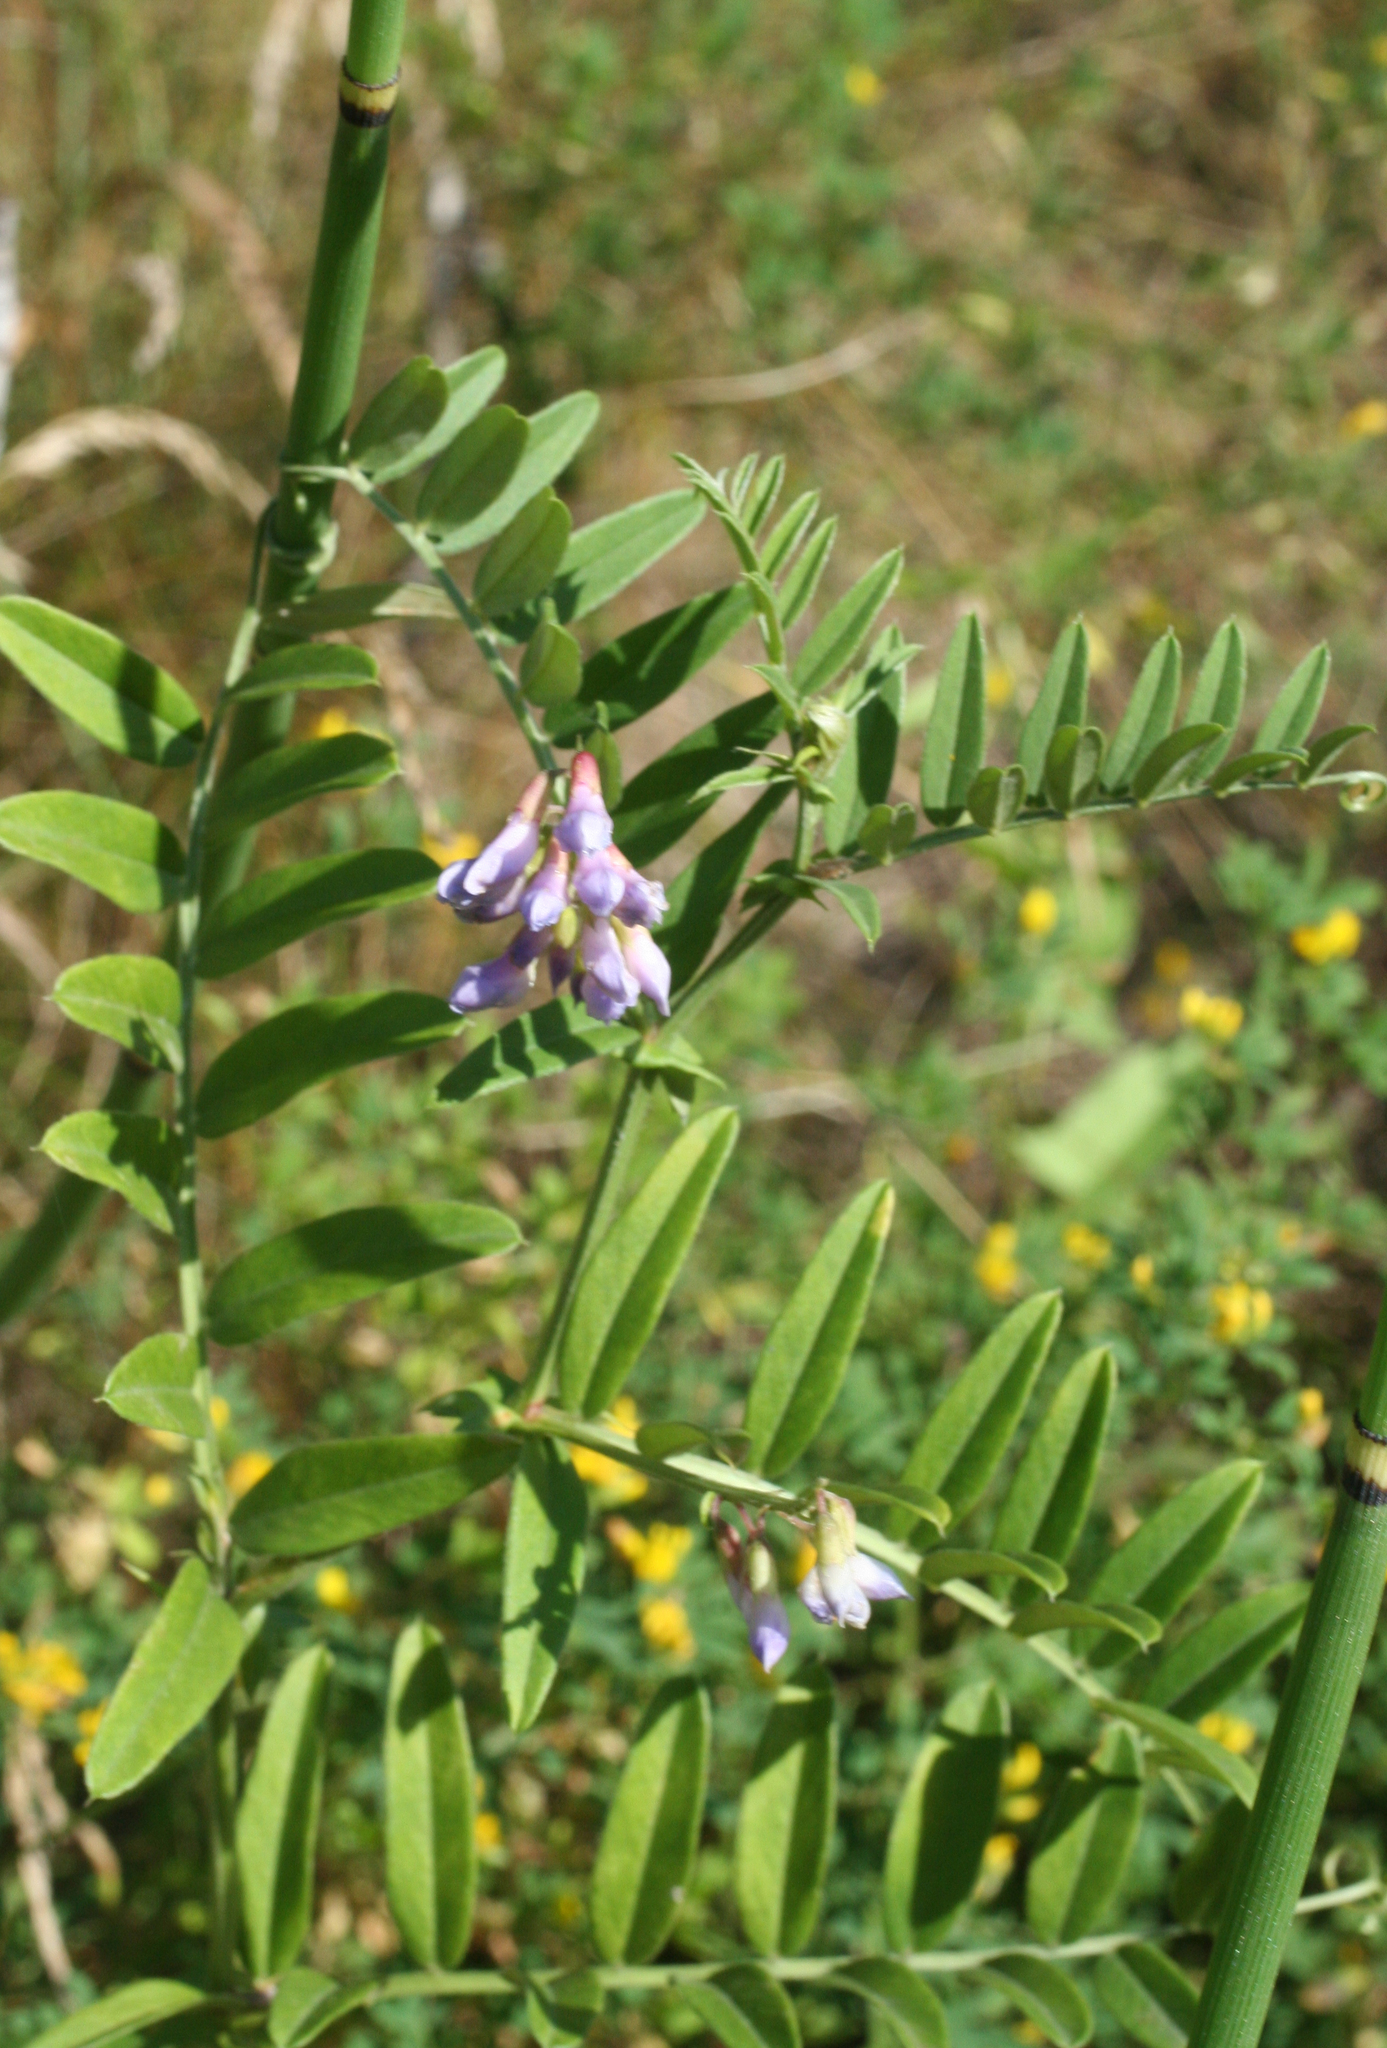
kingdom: Plantae
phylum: Tracheophyta
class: Magnoliopsida
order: Fabales
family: Fabaceae
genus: Vicia
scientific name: Vicia amoena
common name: Cheder ebs
